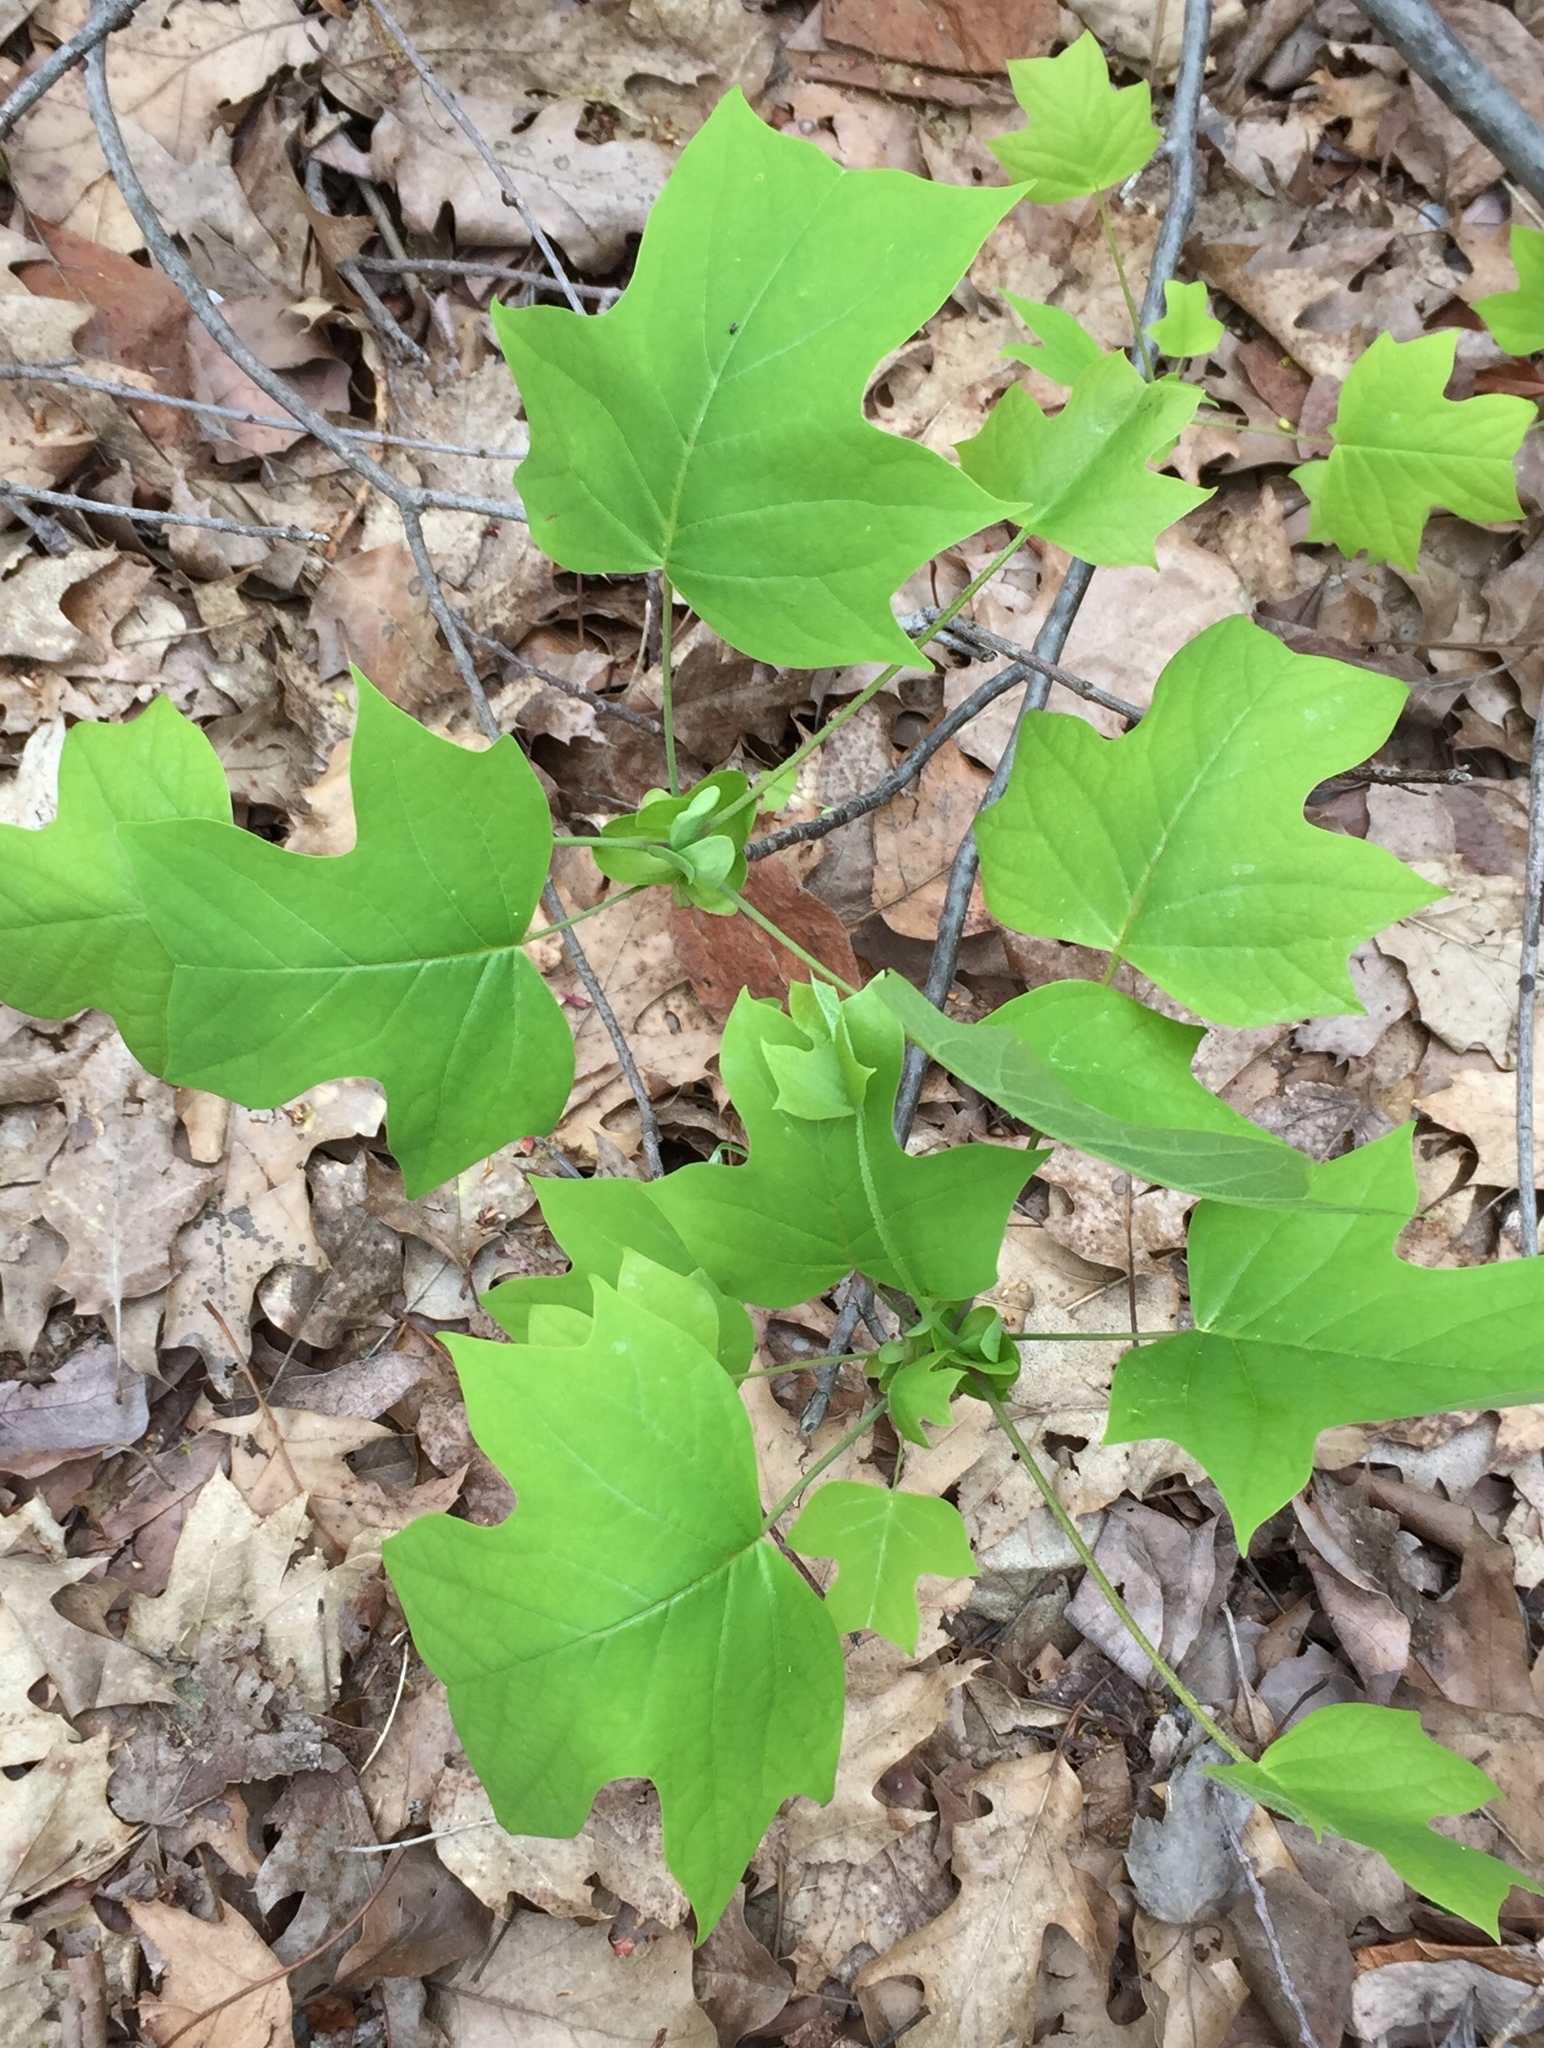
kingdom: Plantae
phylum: Tracheophyta
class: Magnoliopsida
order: Magnoliales
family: Magnoliaceae
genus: Liriodendron
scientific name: Liriodendron tulipifera
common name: Tulip tree
